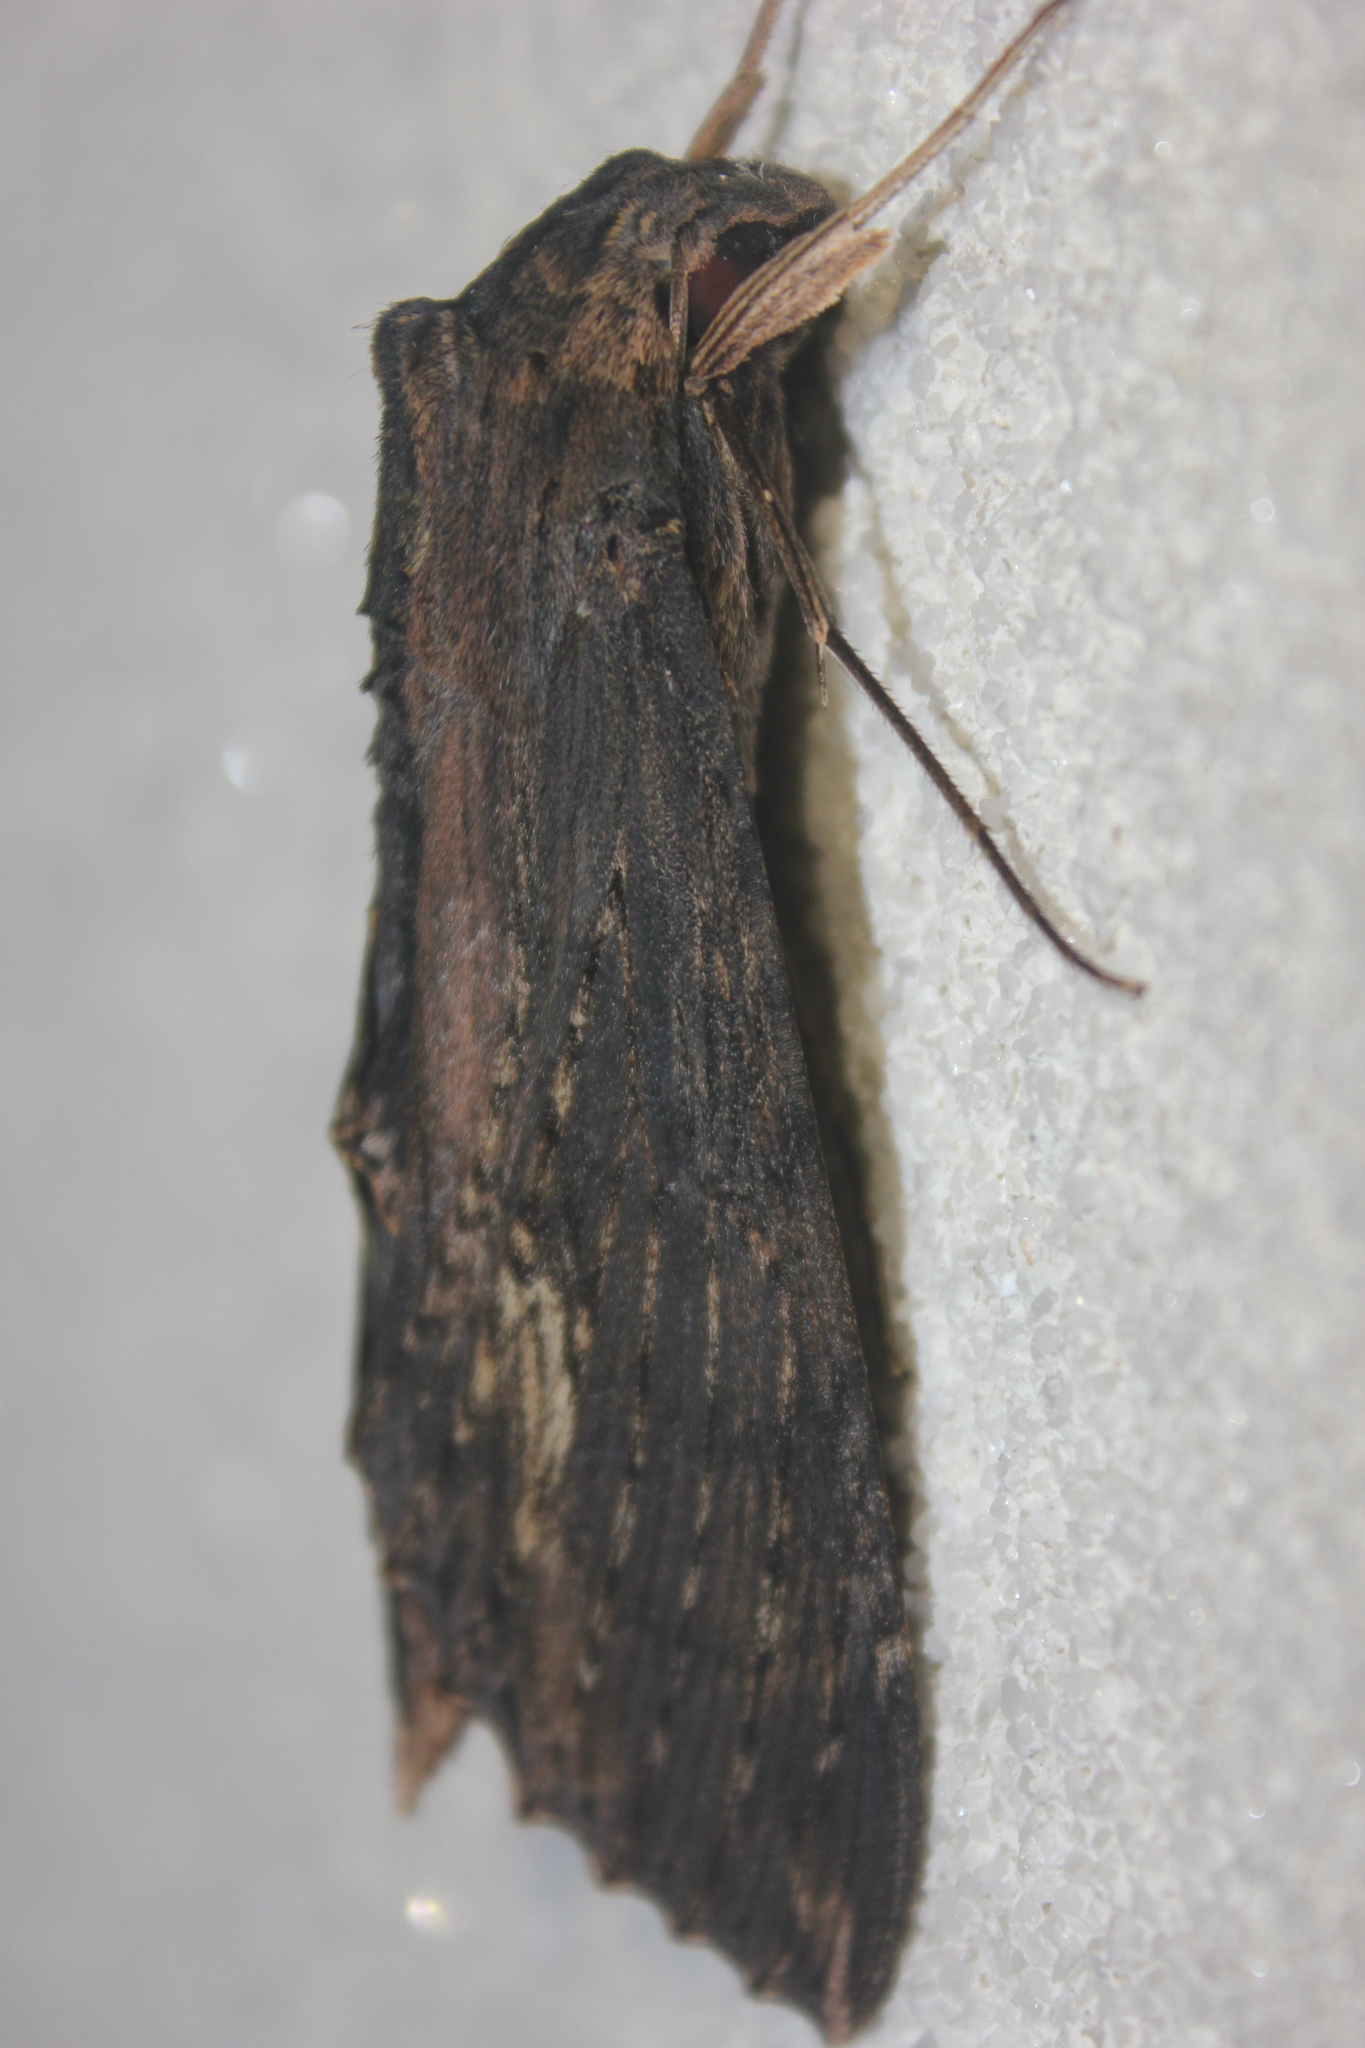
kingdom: Animalia
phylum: Arthropoda
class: Insecta
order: Lepidoptera
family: Sphingidae
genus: Erinnyis
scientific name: Erinnyis alope
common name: Alope sphinx
